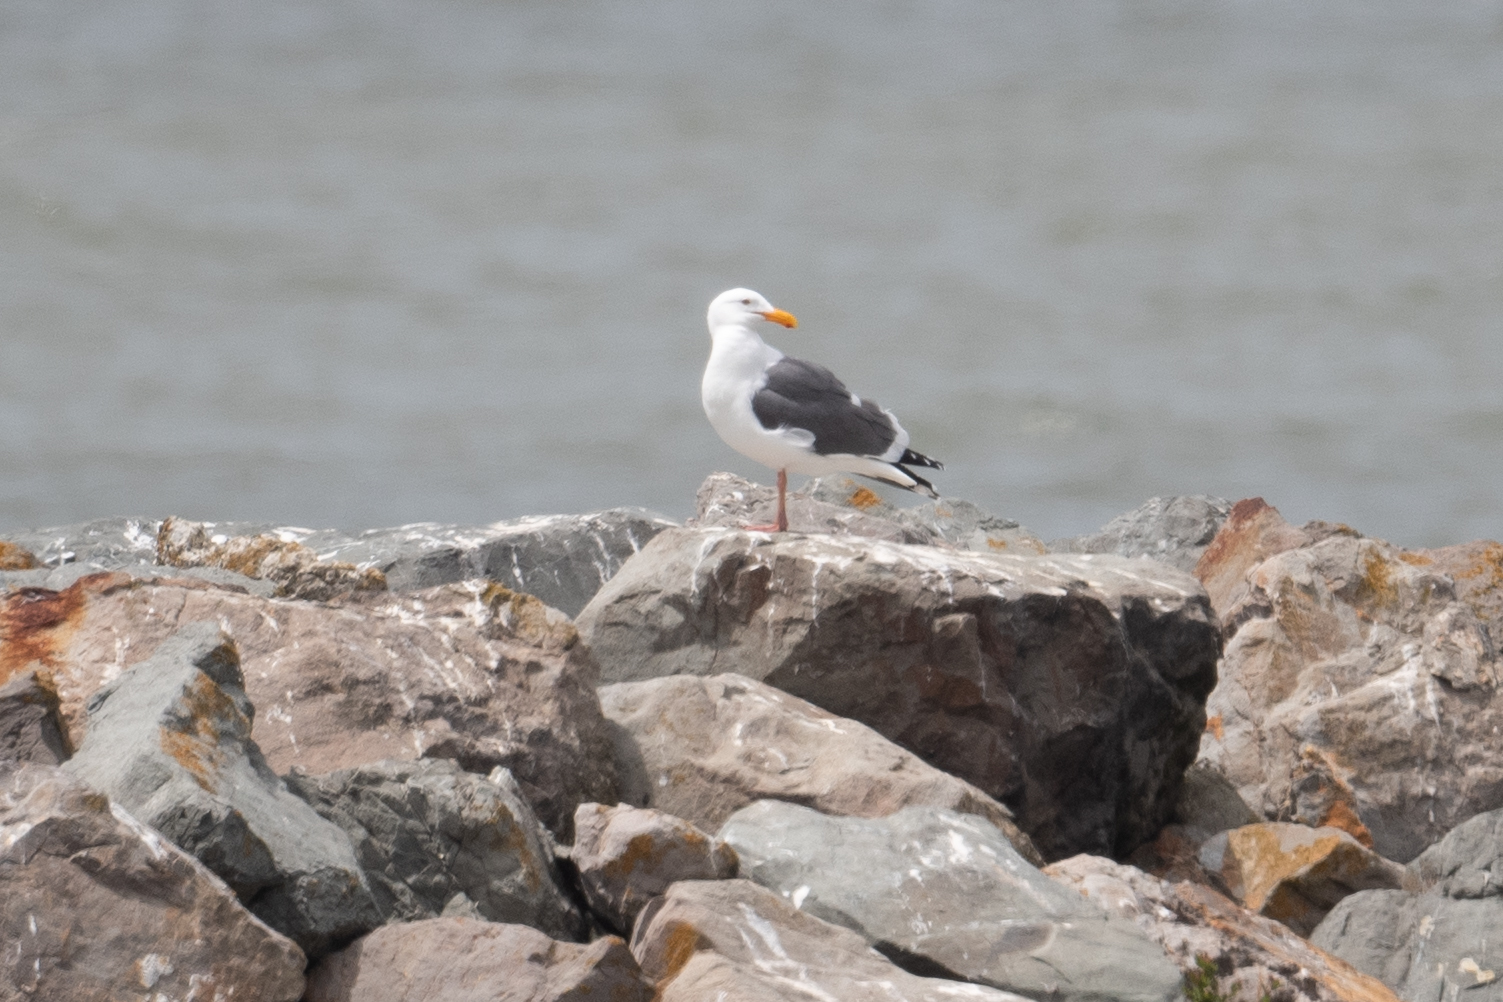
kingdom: Animalia
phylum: Chordata
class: Aves
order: Charadriiformes
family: Laridae
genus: Larus
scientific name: Larus occidentalis
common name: Western gull
